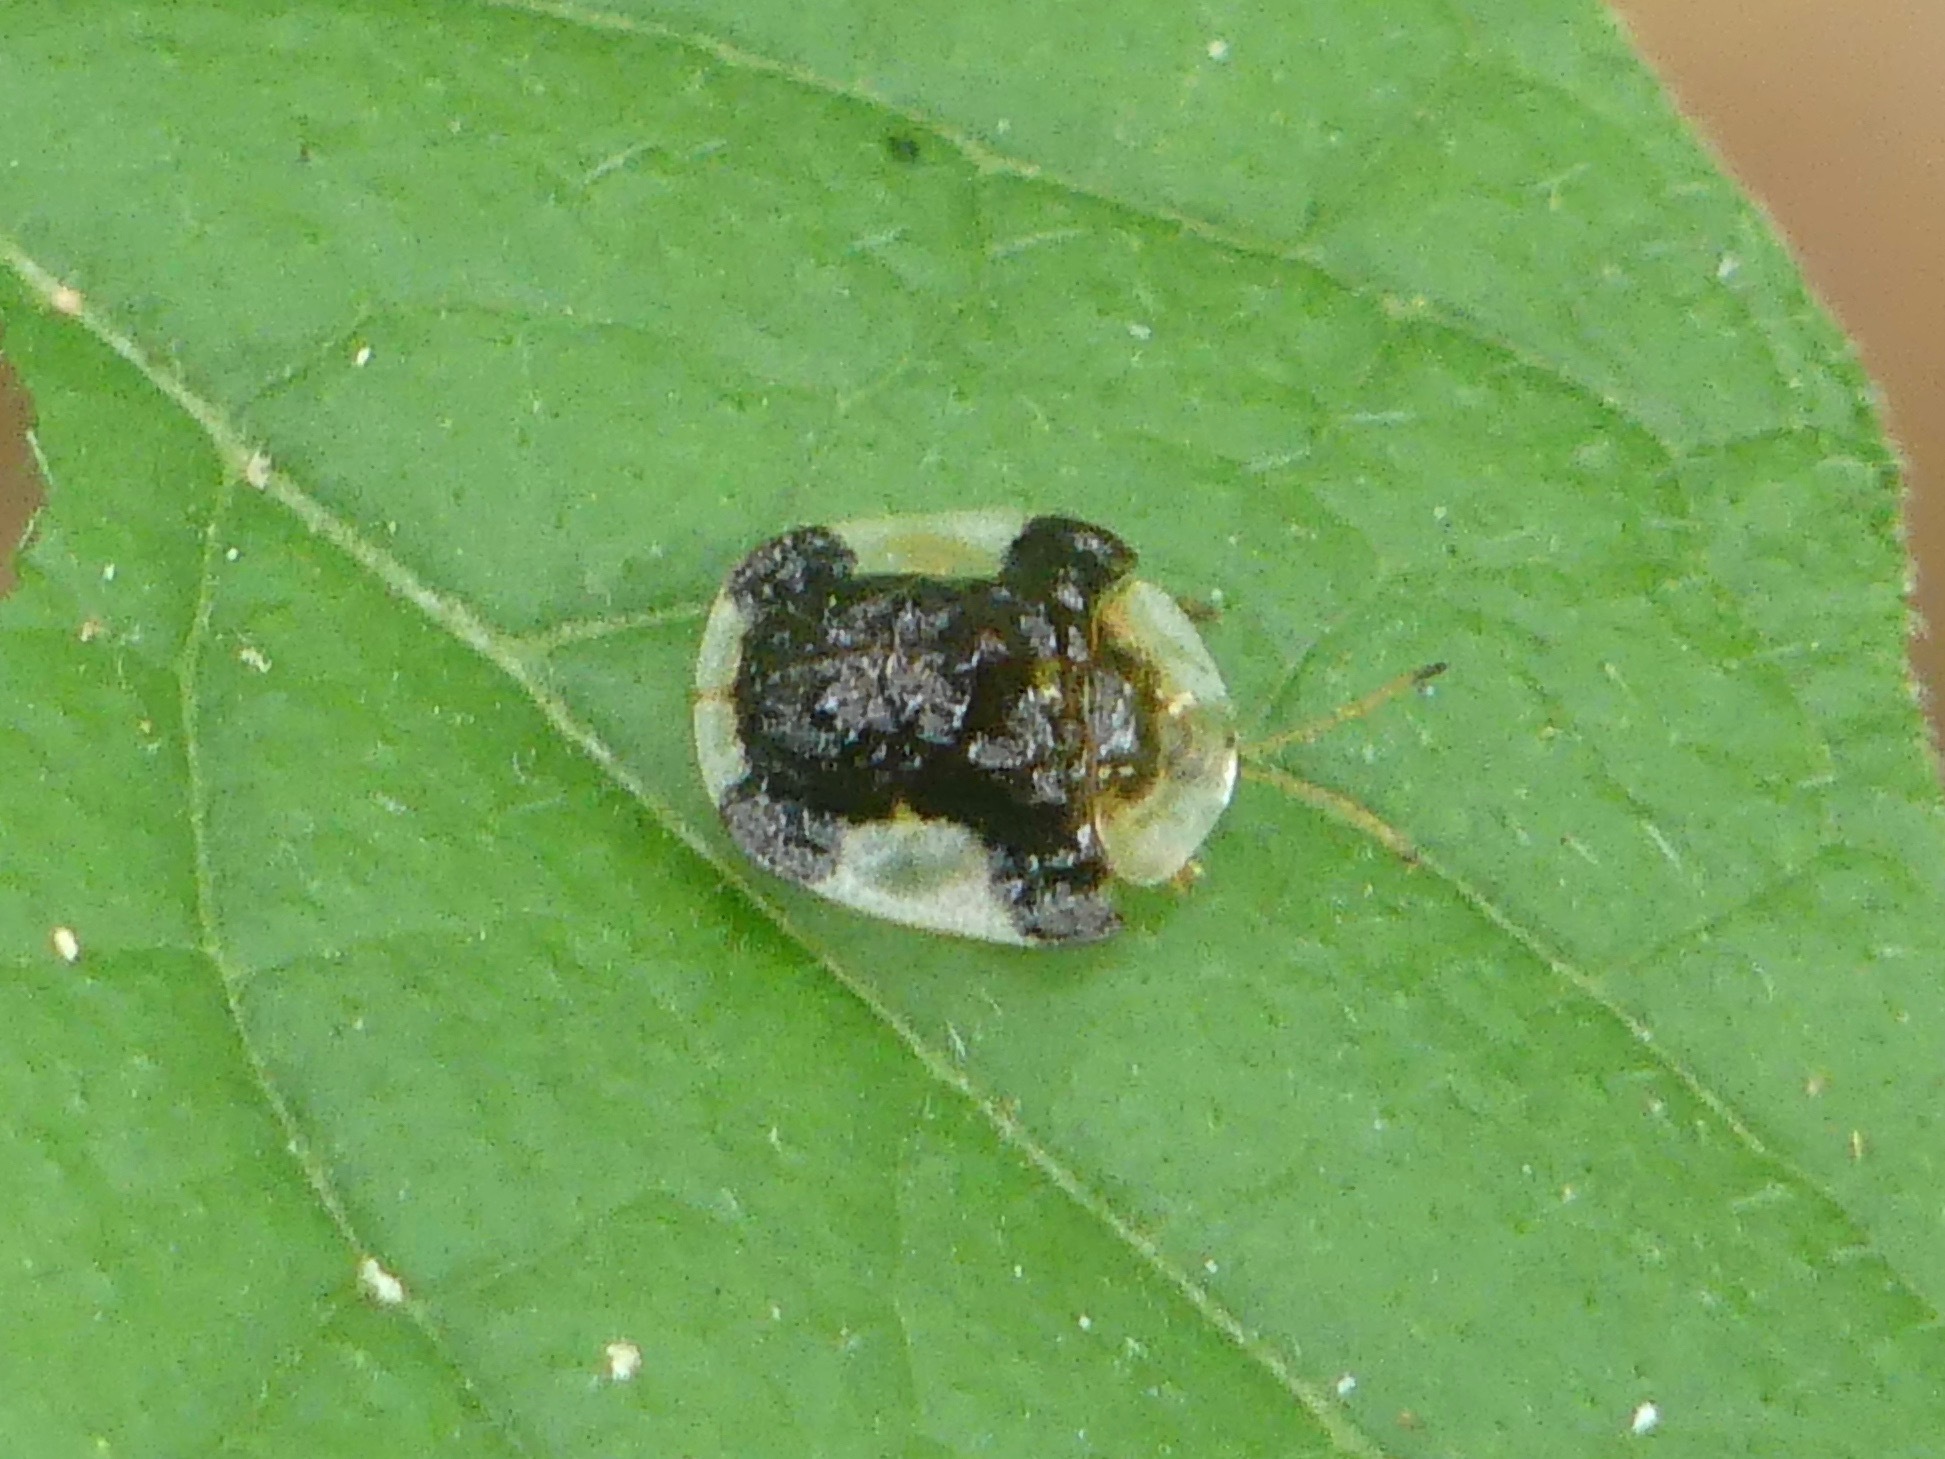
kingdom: Animalia
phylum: Arthropoda
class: Insecta
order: Coleoptera
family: Chrysomelidae
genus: Helocassis
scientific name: Helocassis clavata
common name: Clavate tortoise beetle
